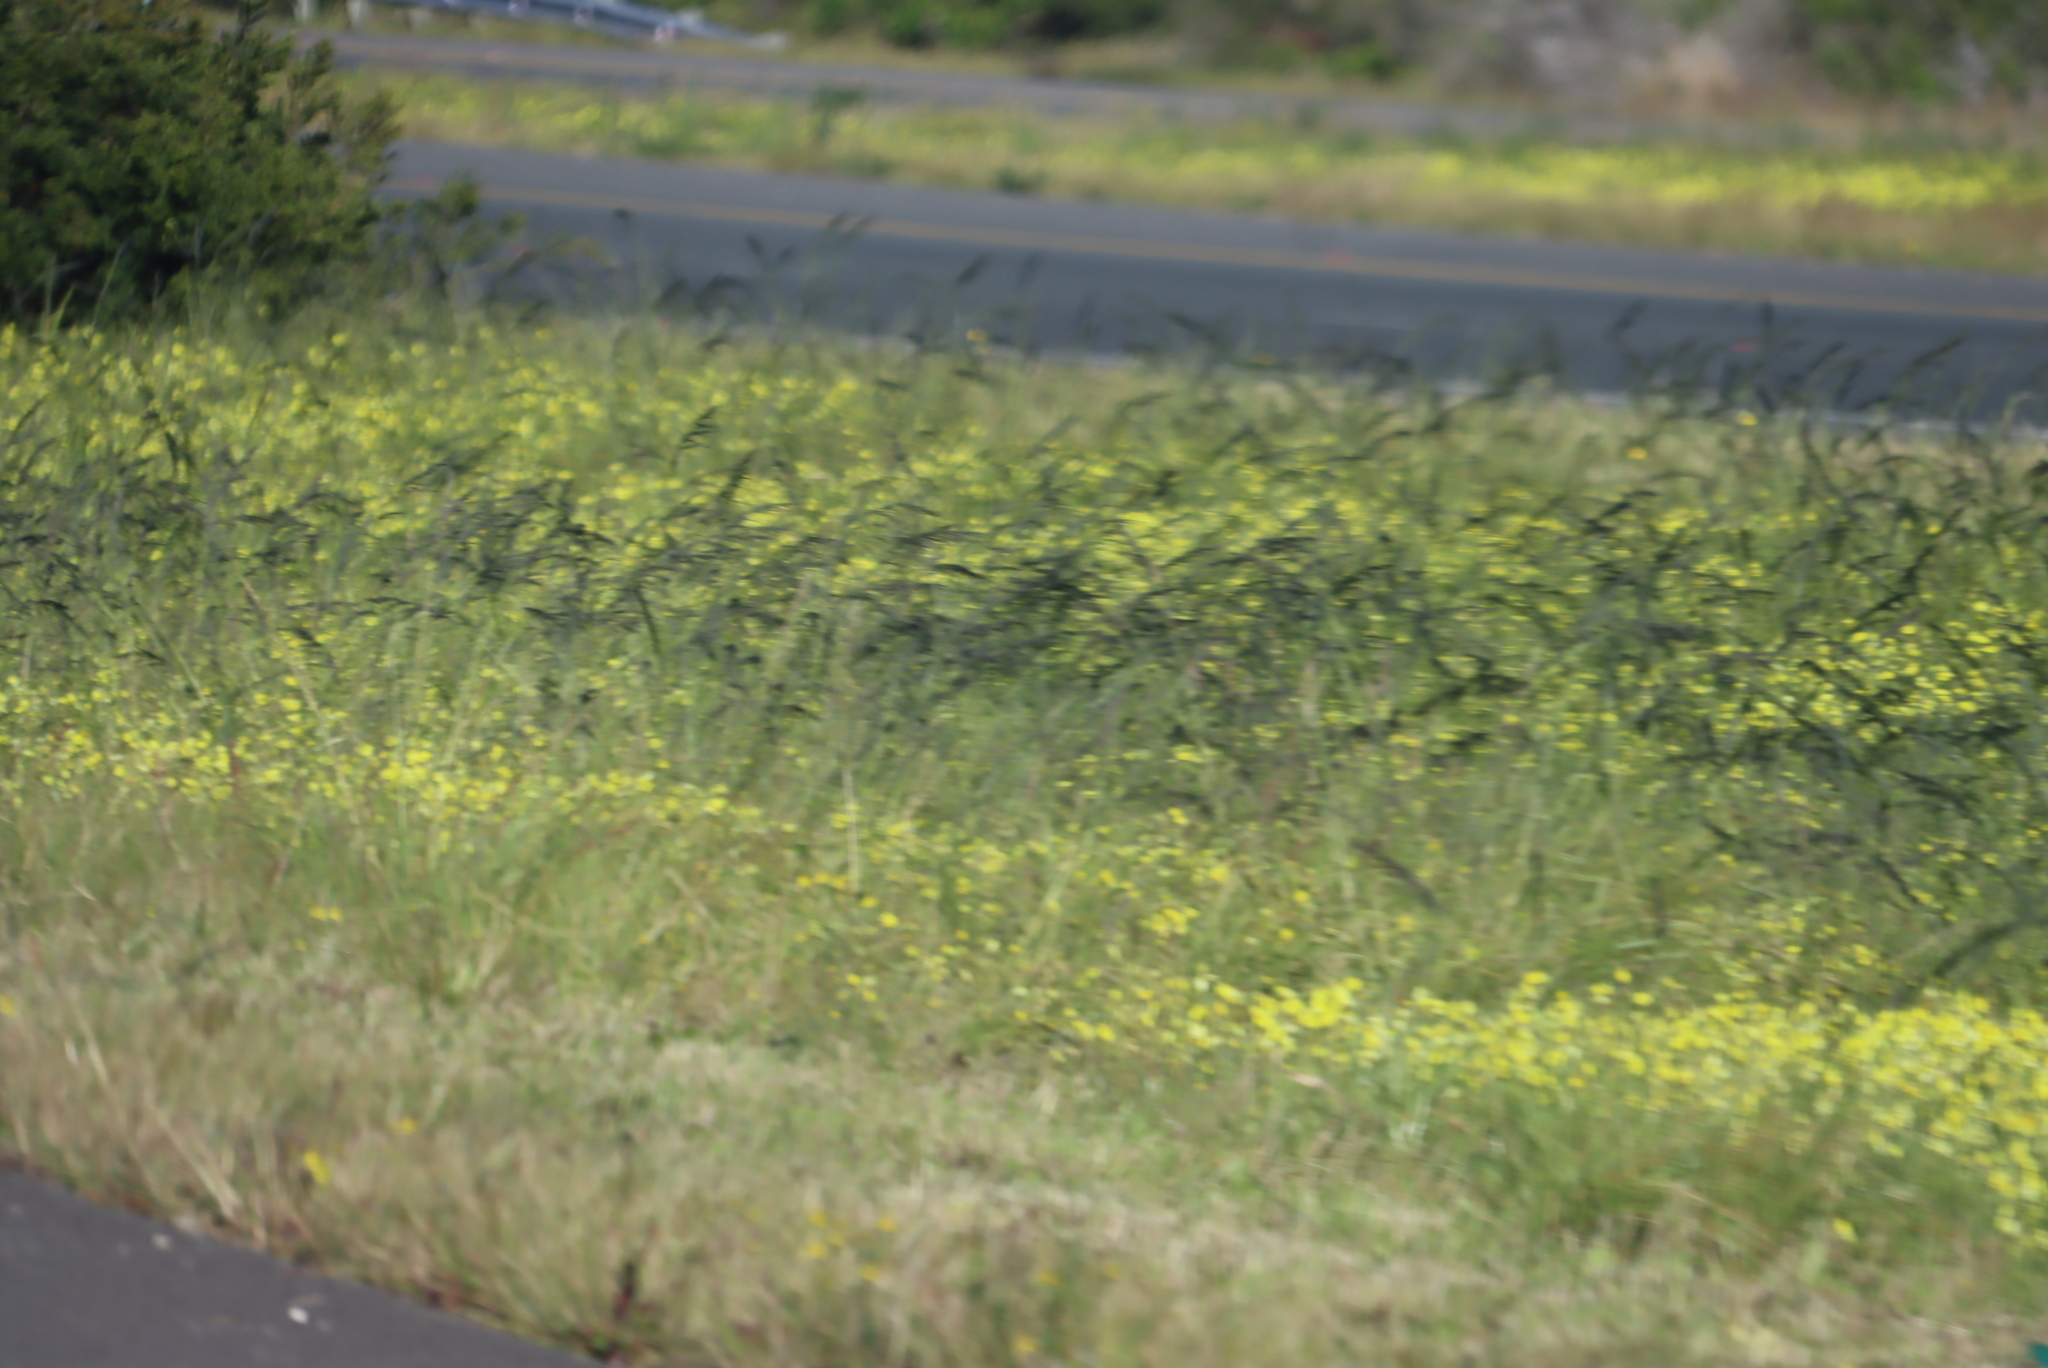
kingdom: Plantae
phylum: Tracheophyta
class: Magnoliopsida
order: Oxalidales
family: Oxalidaceae
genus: Oxalis
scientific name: Oxalis pes-caprae
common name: Bermuda-buttercup
